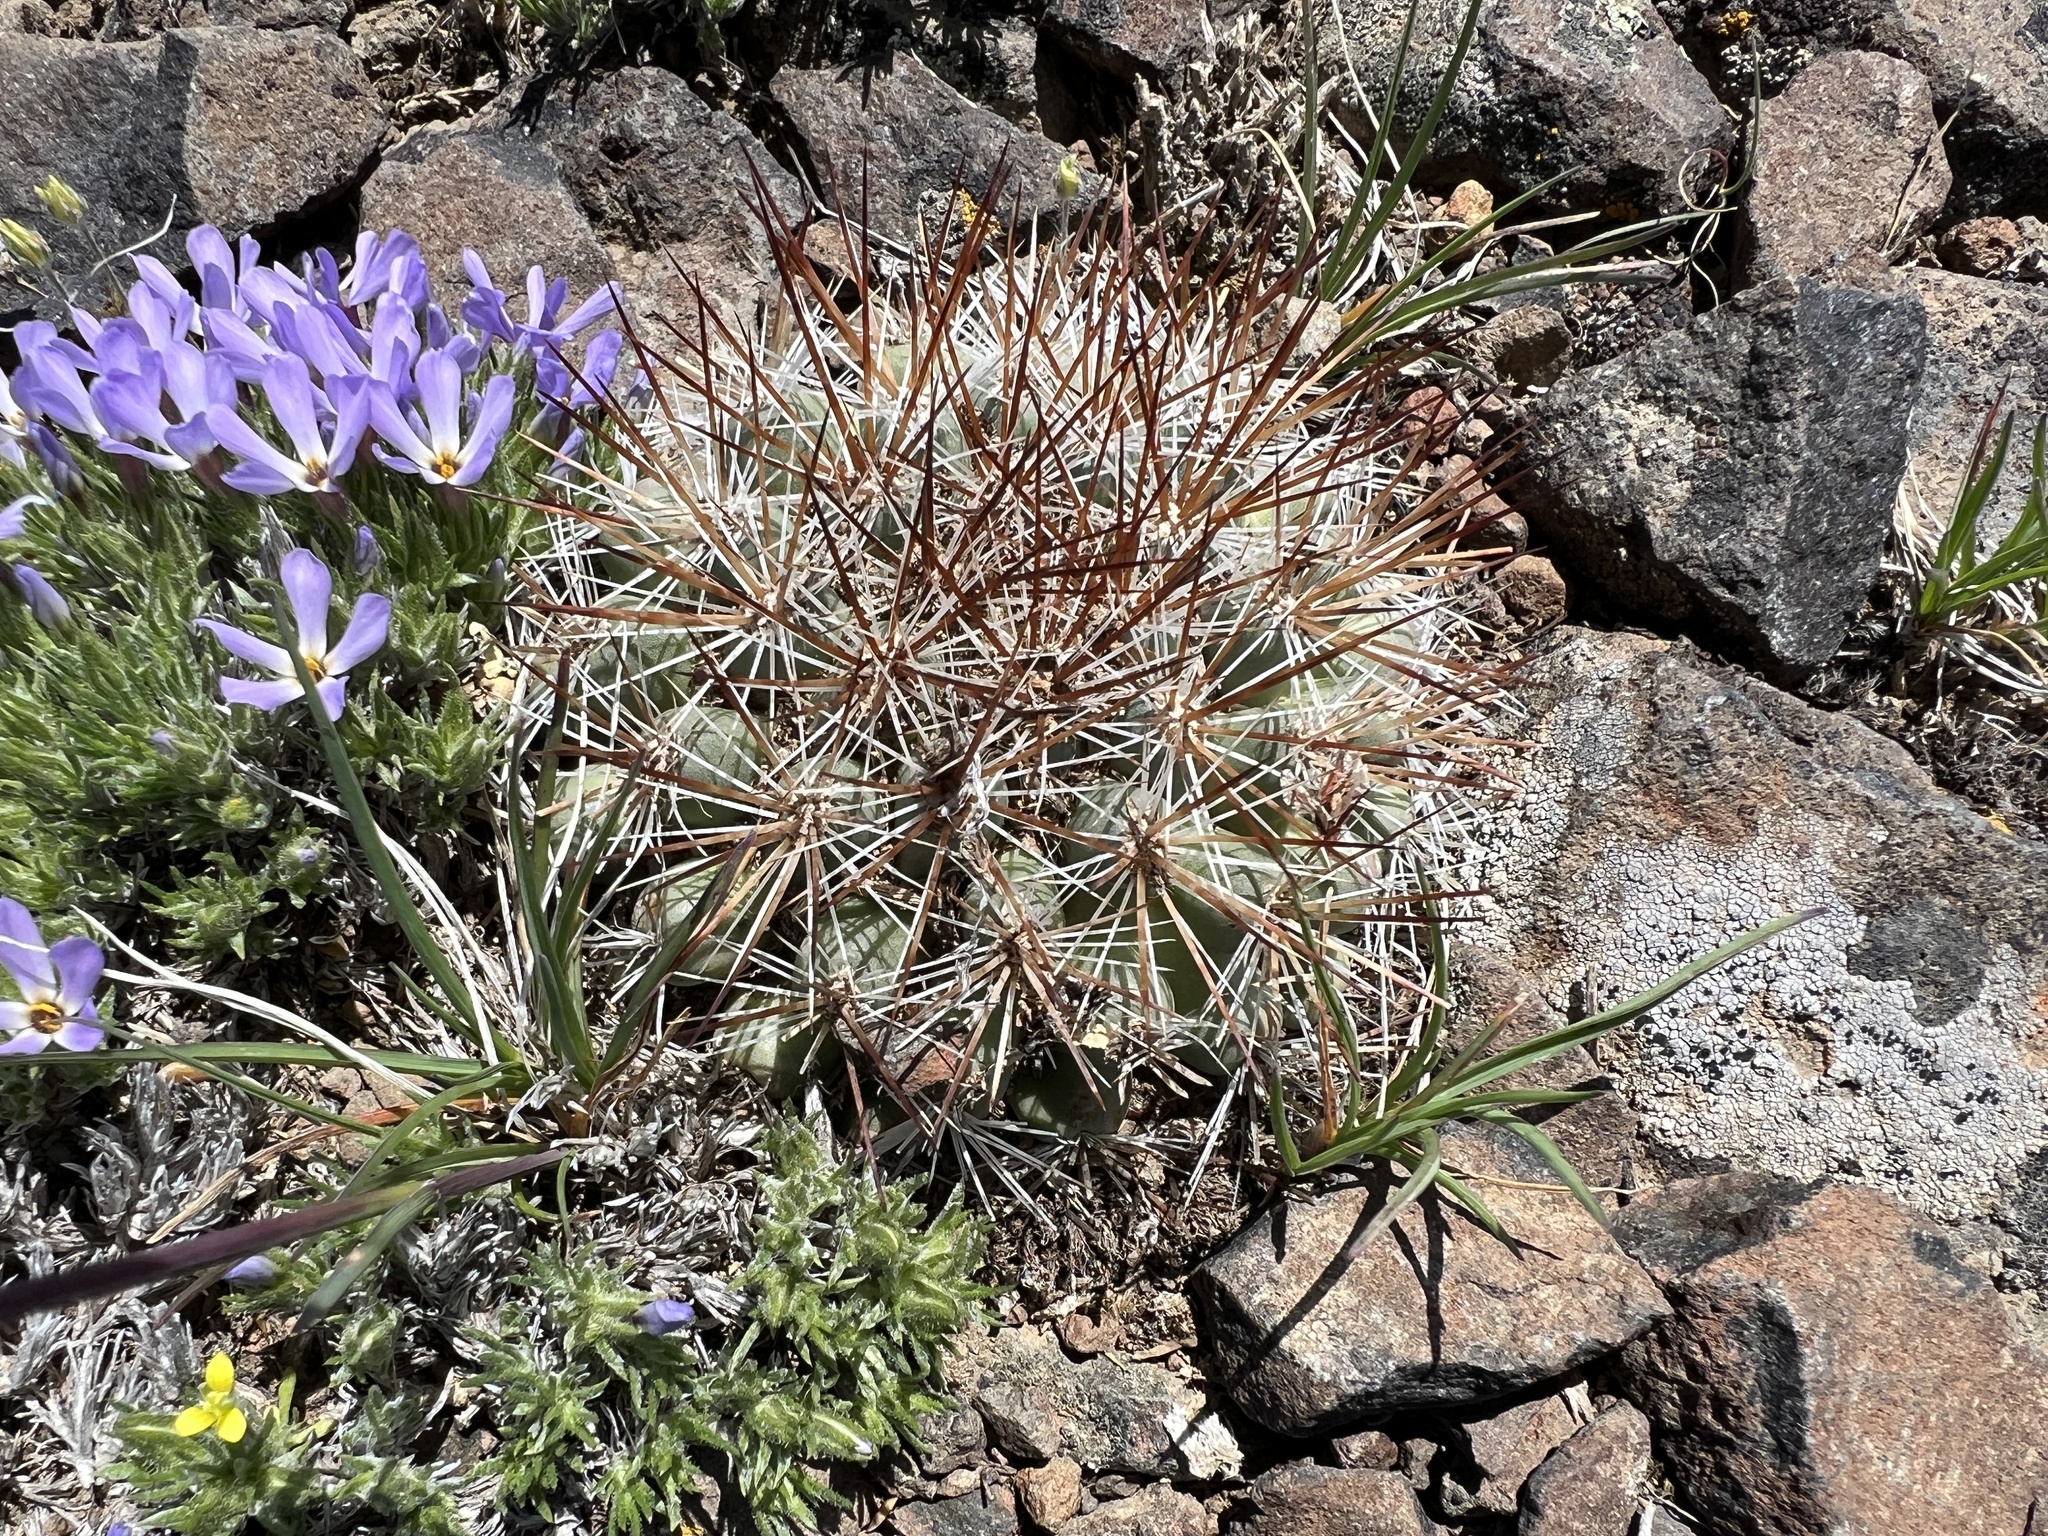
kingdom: Plantae
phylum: Tracheophyta
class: Magnoliopsida
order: Caryophyllales
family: Cactaceae
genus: Pediocactus
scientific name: Pediocactus nigrispinus
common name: Simpson's hedgehog cactus
